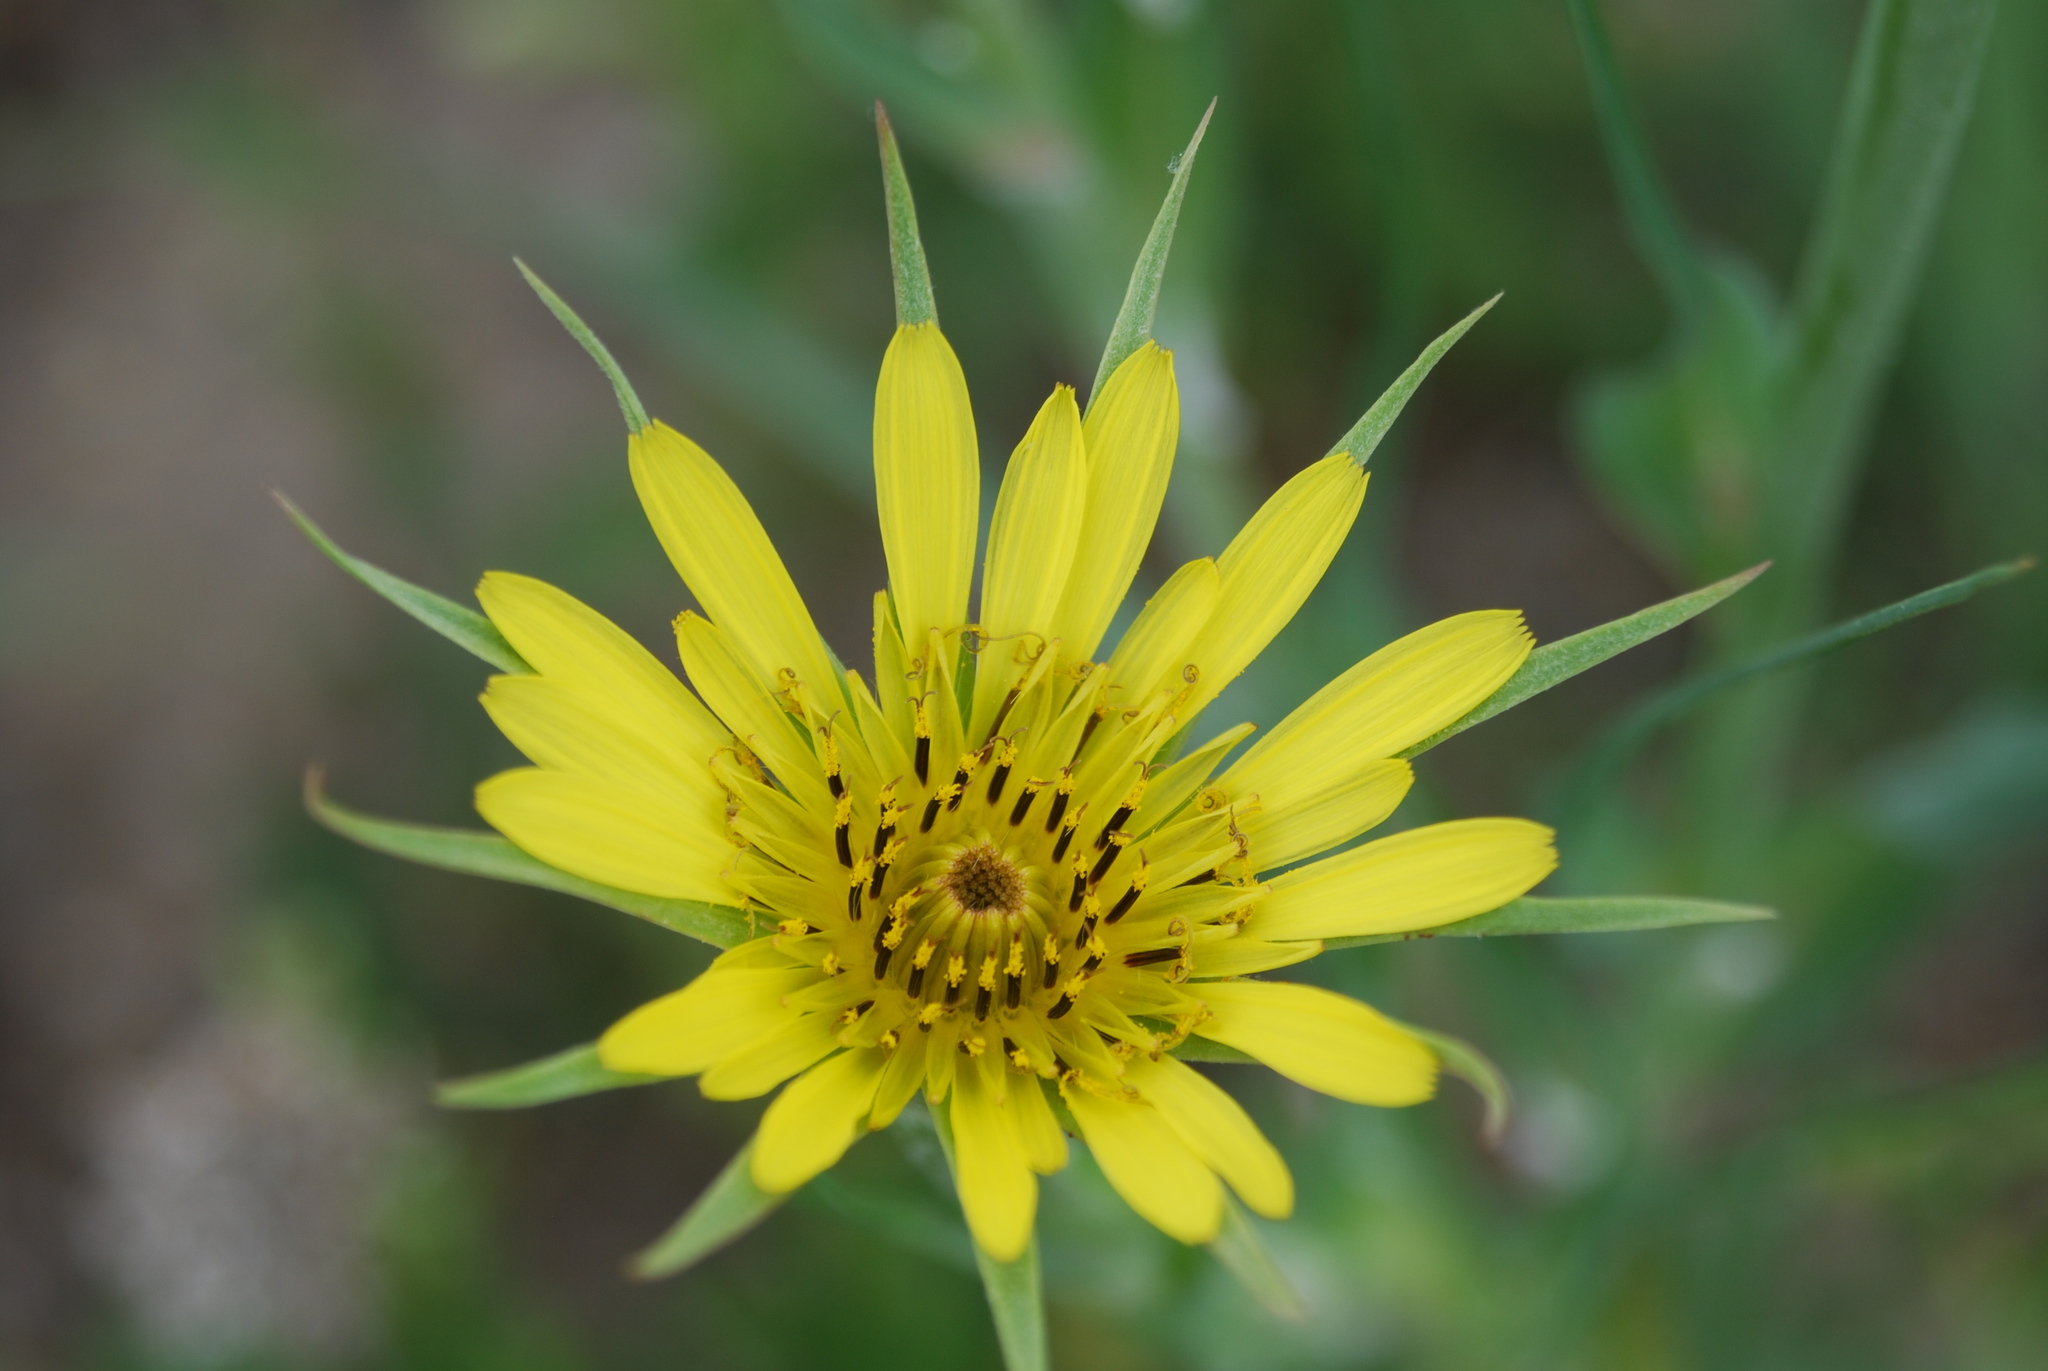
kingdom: Plantae
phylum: Tracheophyta
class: Magnoliopsida
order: Asterales
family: Asteraceae
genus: Tragopogon
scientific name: Tragopogon dubius
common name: Yellow salsify
